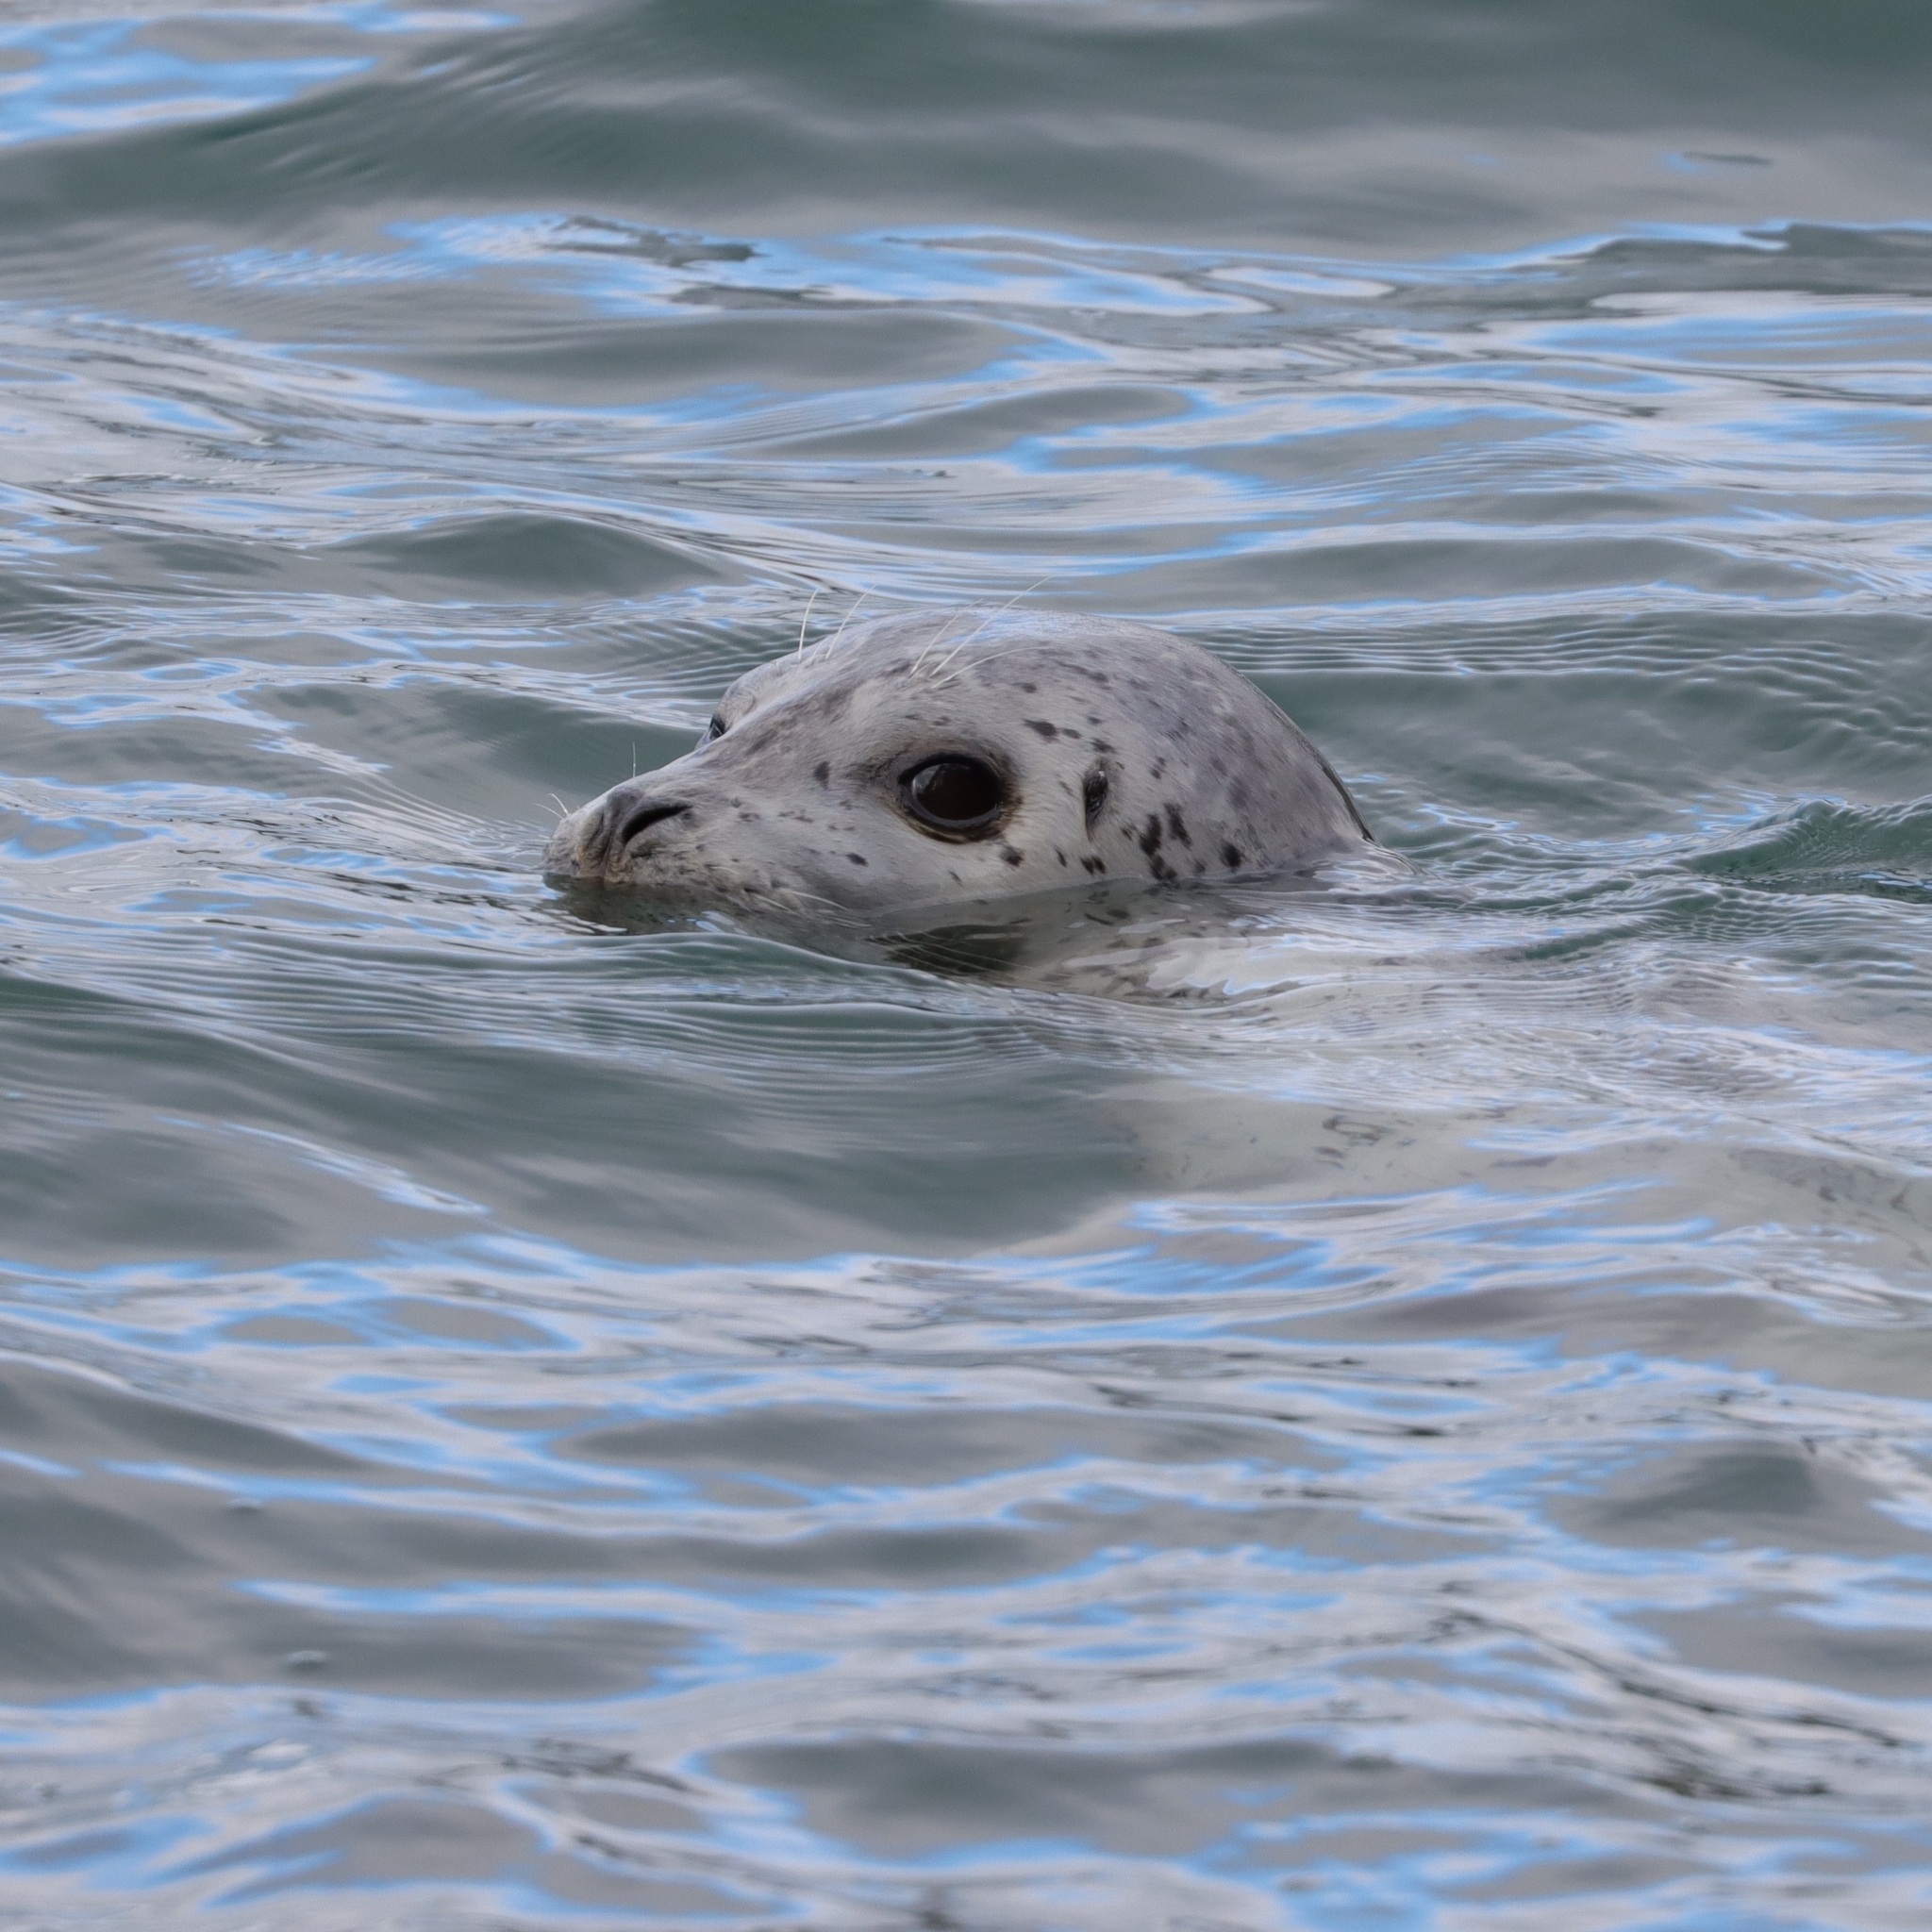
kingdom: Animalia
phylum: Chordata
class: Mammalia
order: Carnivora
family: Phocidae
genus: Phoca
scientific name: Phoca vitulina
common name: Harbor seal
